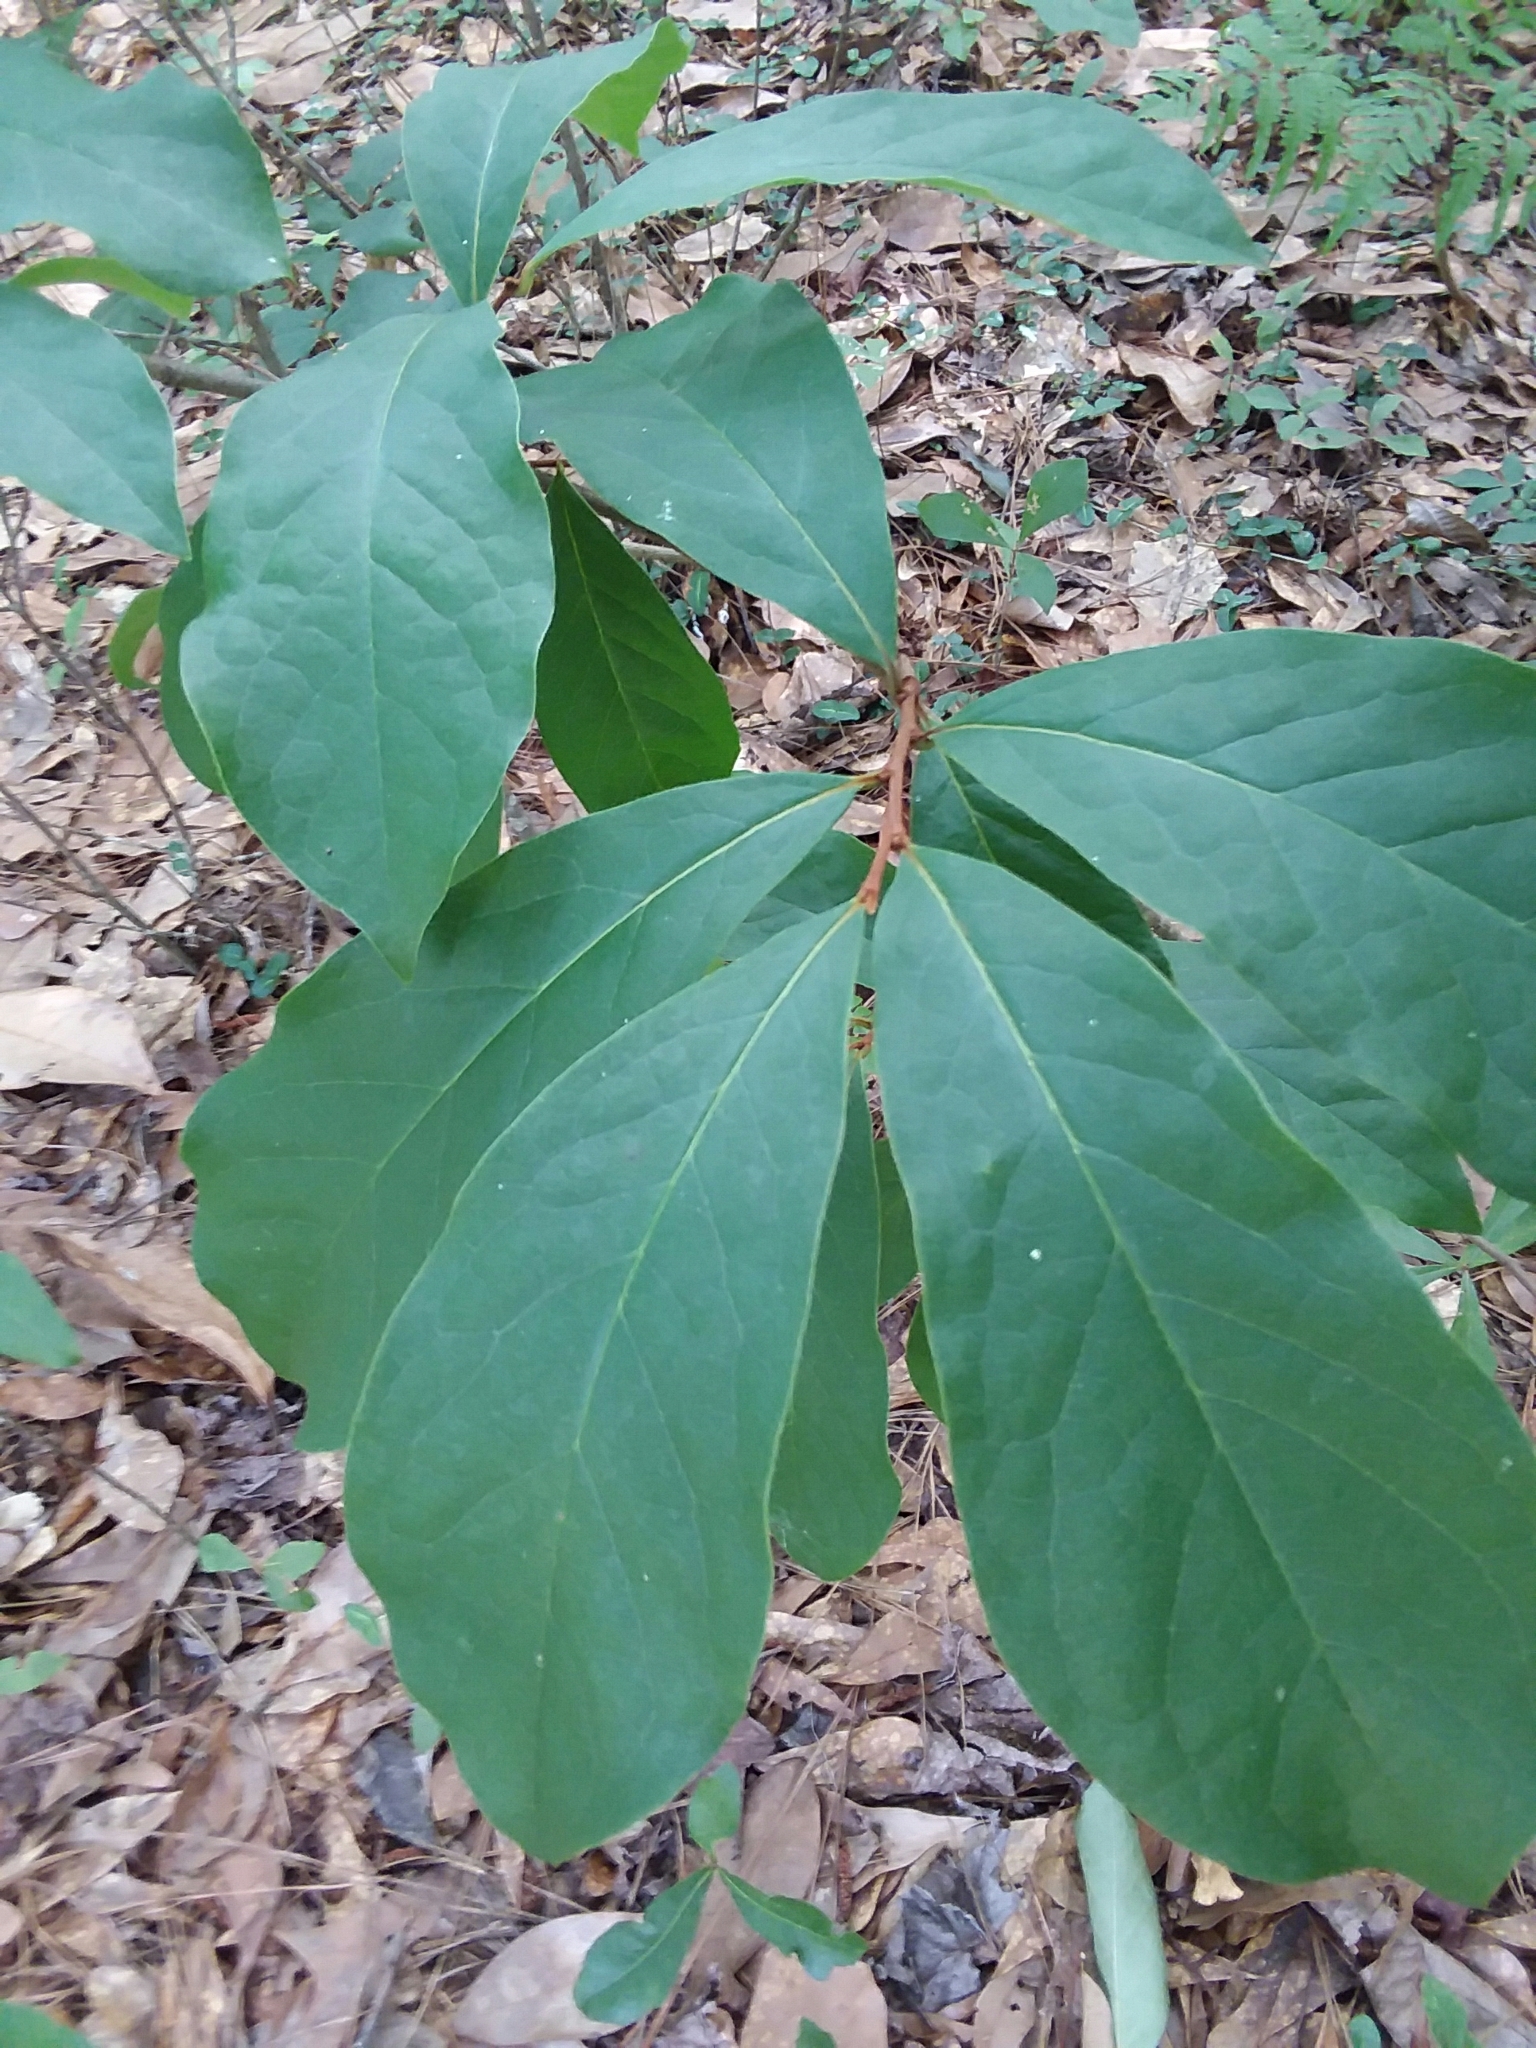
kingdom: Plantae
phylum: Tracheophyta
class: Magnoliopsida
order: Magnoliales
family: Annonaceae
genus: Asimina
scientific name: Asimina parviflora
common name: Dwarf pawpaw
